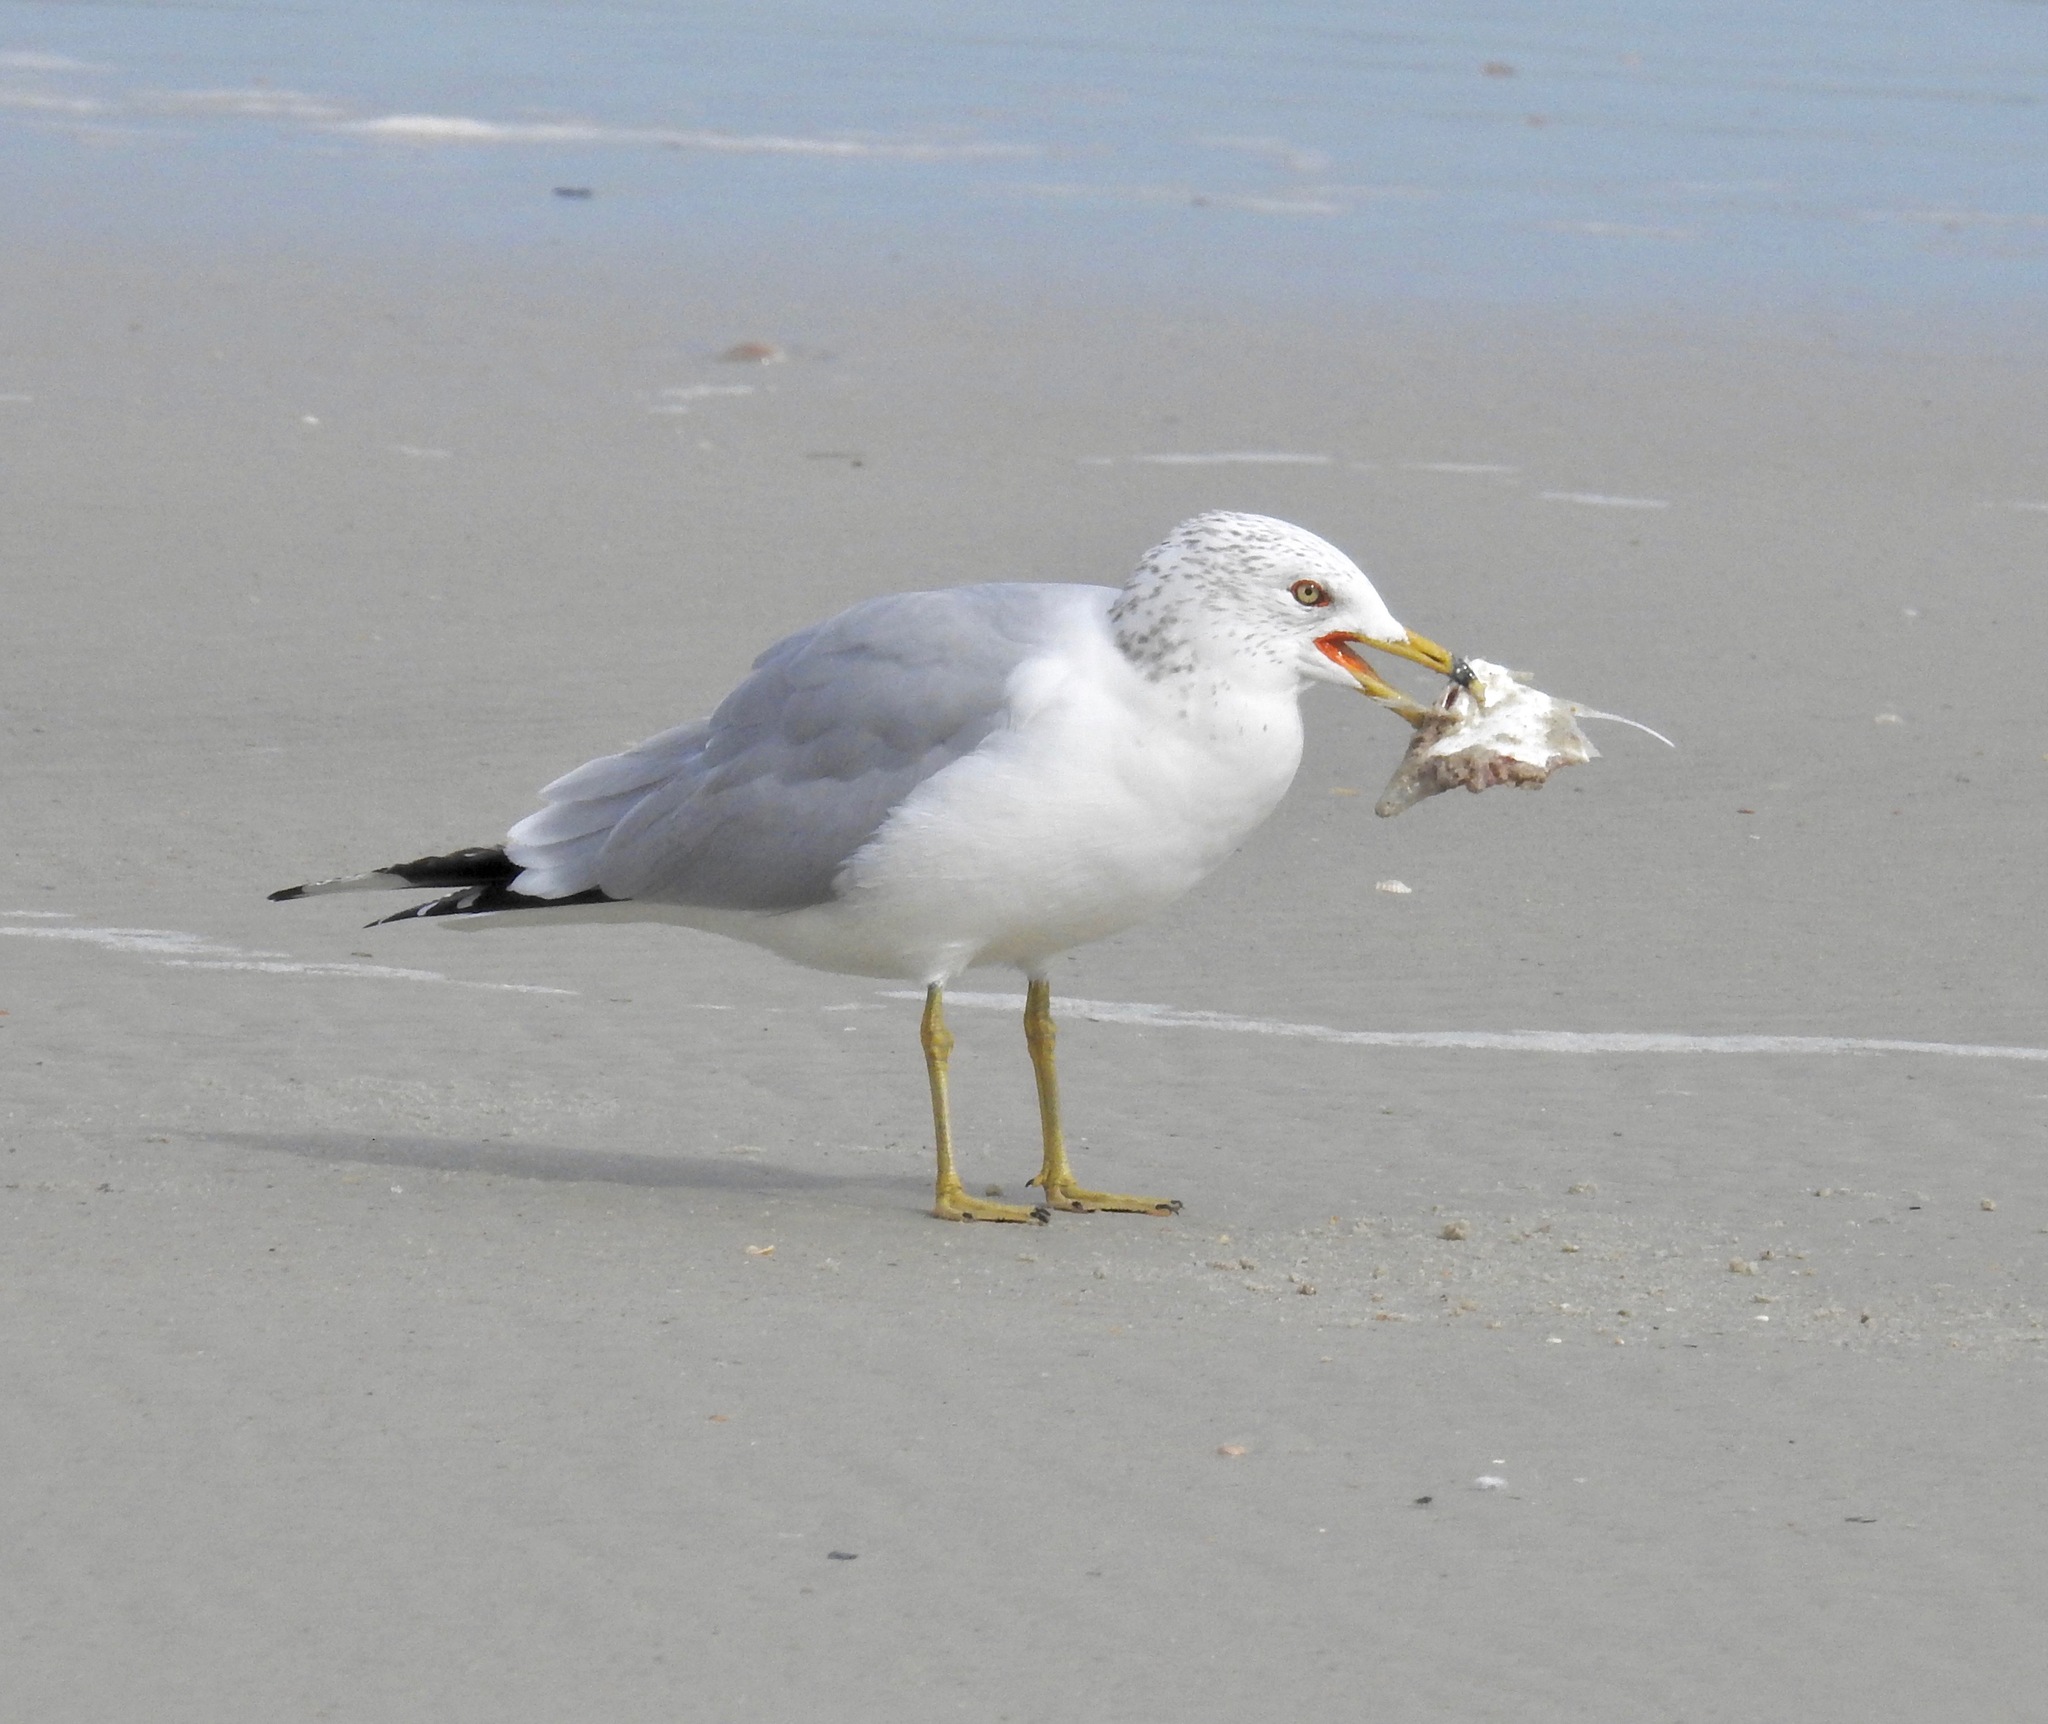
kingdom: Animalia
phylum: Chordata
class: Aves
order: Charadriiformes
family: Laridae
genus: Larus
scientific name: Larus delawarensis
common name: Ring-billed gull
